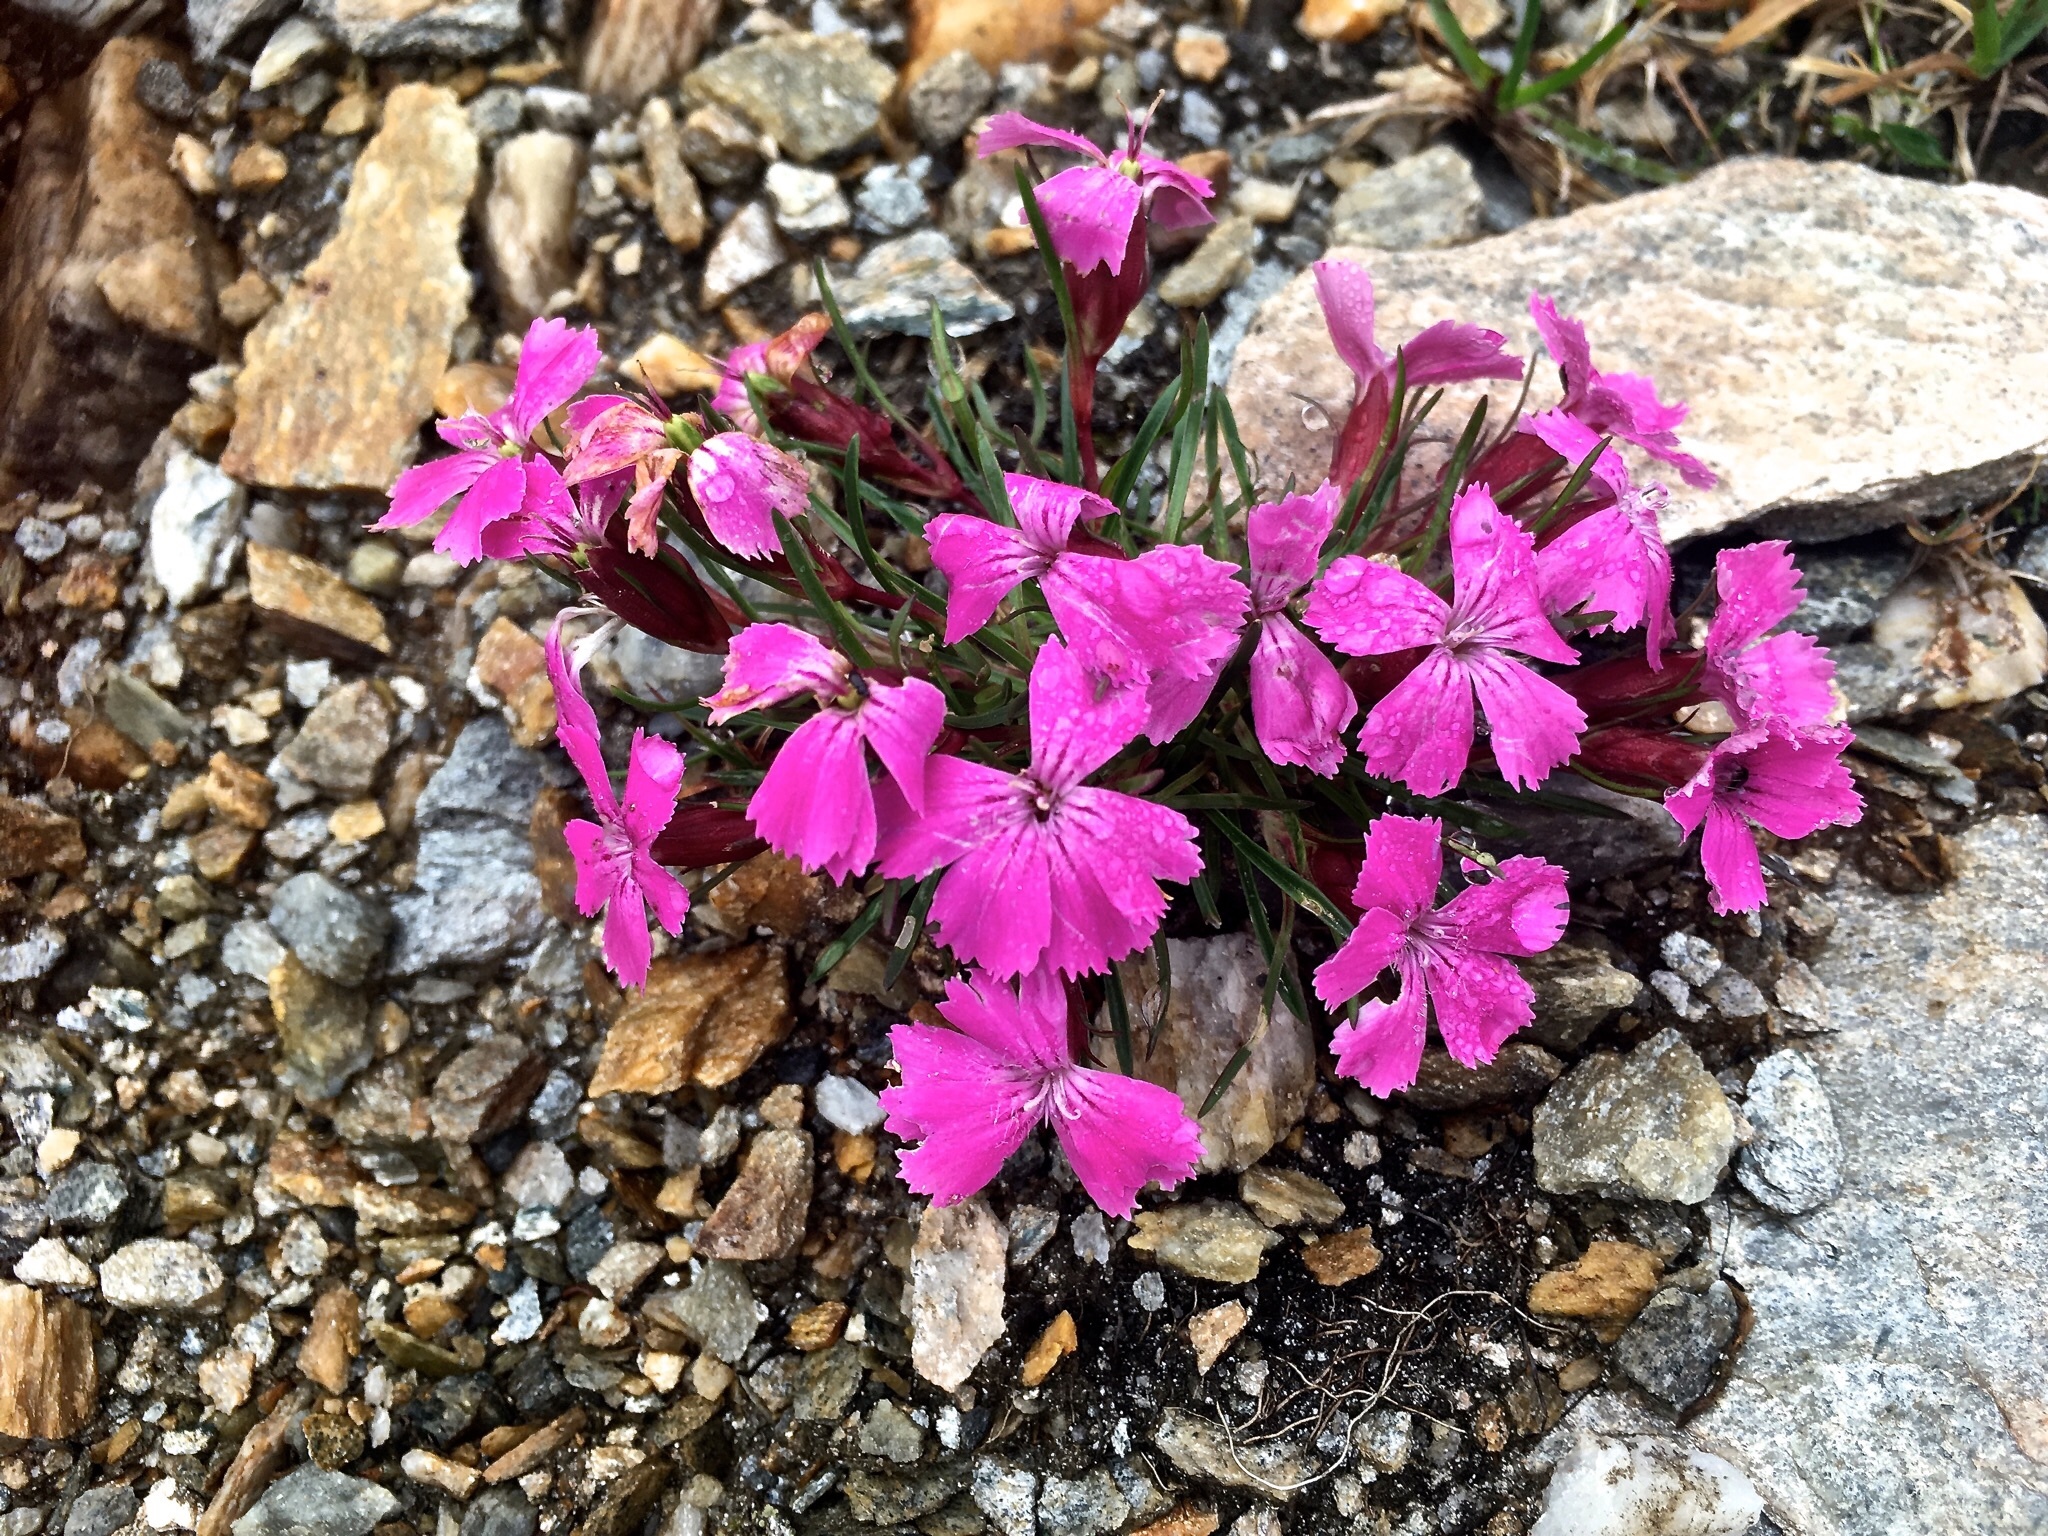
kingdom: Plantae
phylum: Tracheophyta
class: Magnoliopsida
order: Caryophyllales
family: Caryophyllaceae
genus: Dianthus
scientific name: Dianthus glacialis
